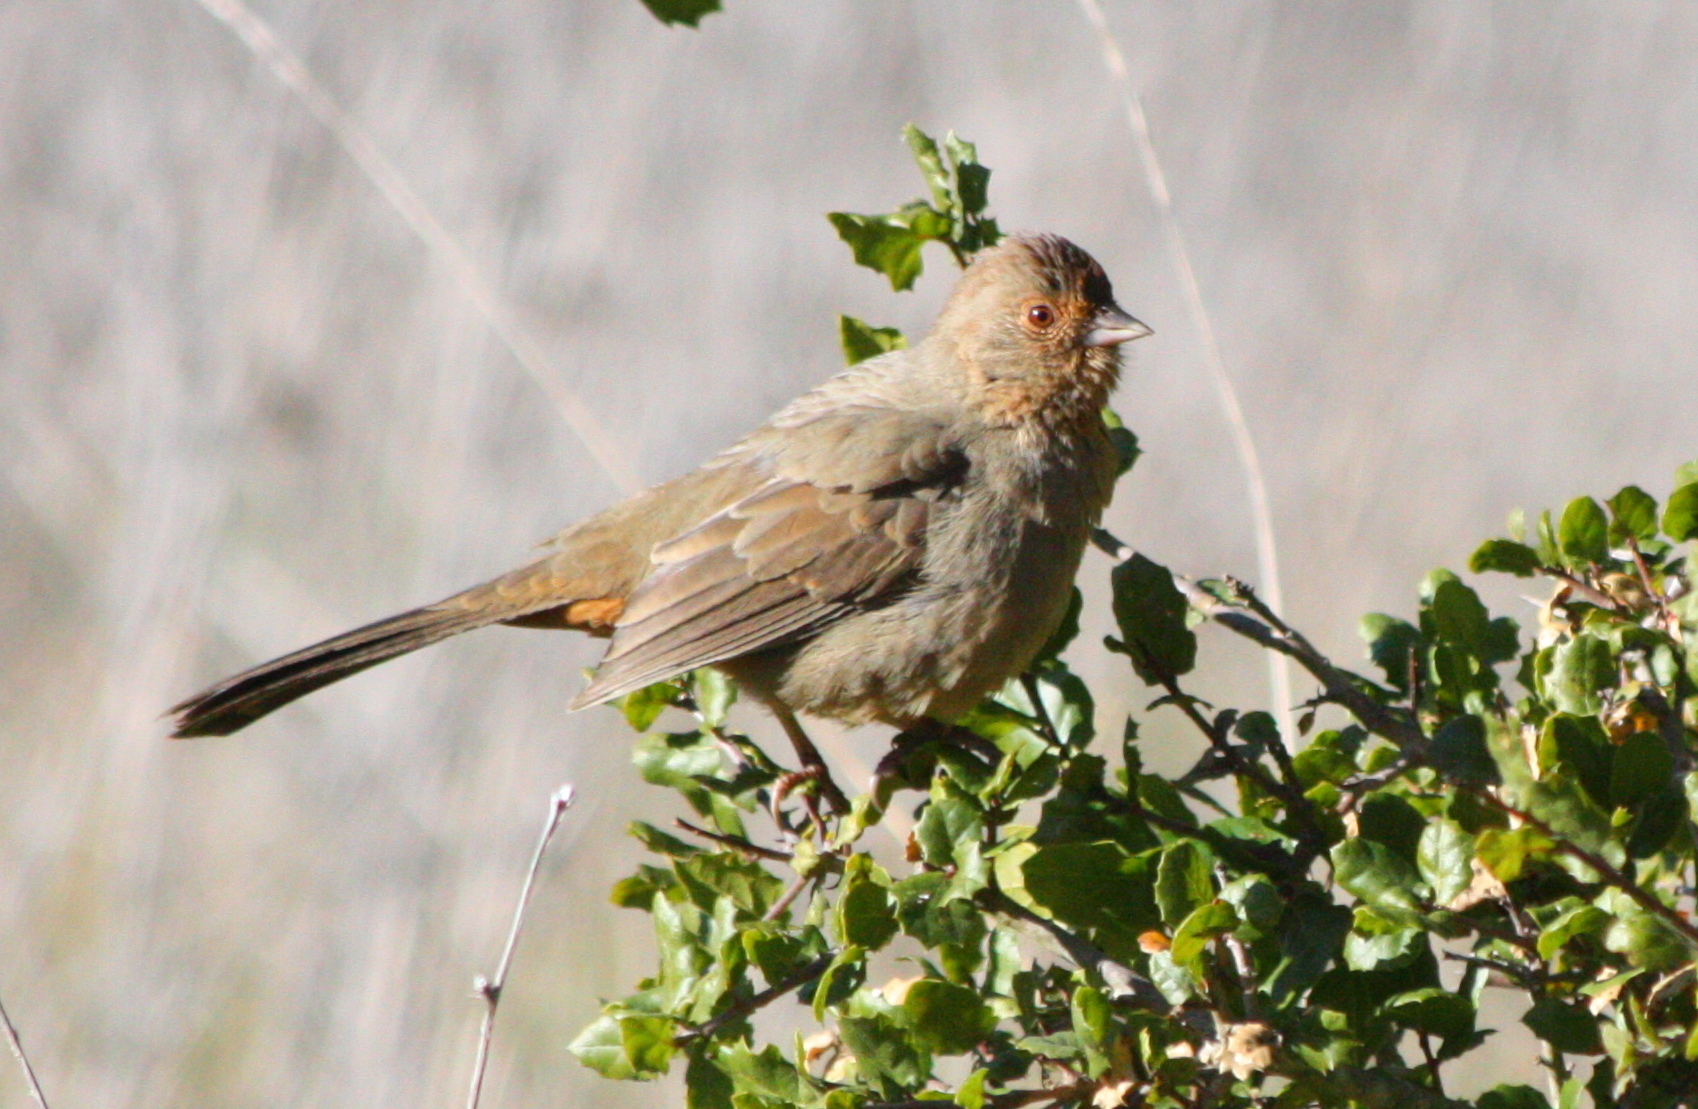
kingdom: Animalia
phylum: Chordata
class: Aves
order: Passeriformes
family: Passerellidae
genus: Melozone
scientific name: Melozone crissalis
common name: California towhee
